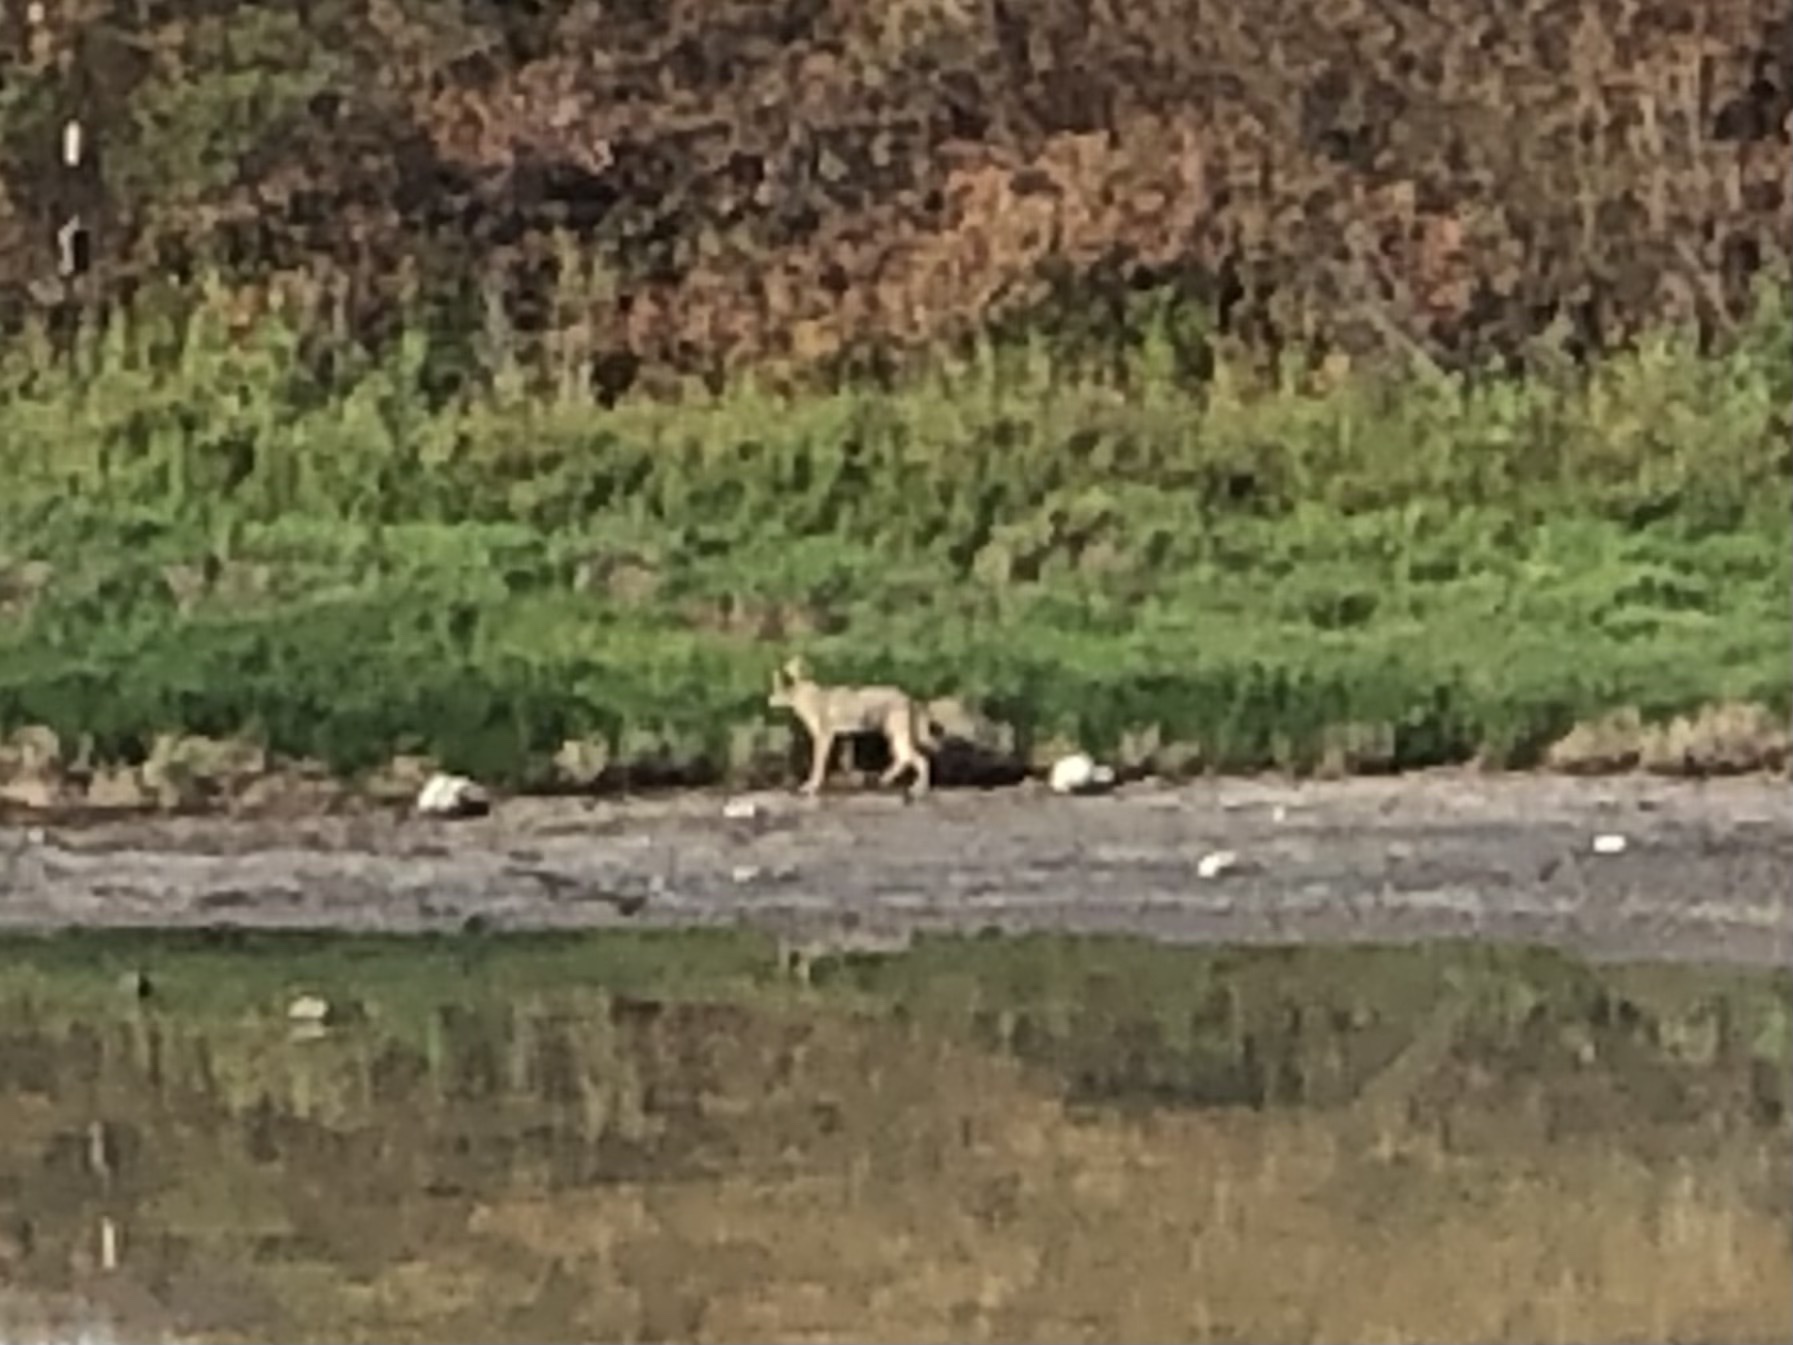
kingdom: Animalia
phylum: Chordata
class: Mammalia
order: Carnivora
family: Canidae
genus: Canis
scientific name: Canis latrans
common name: Coyote
